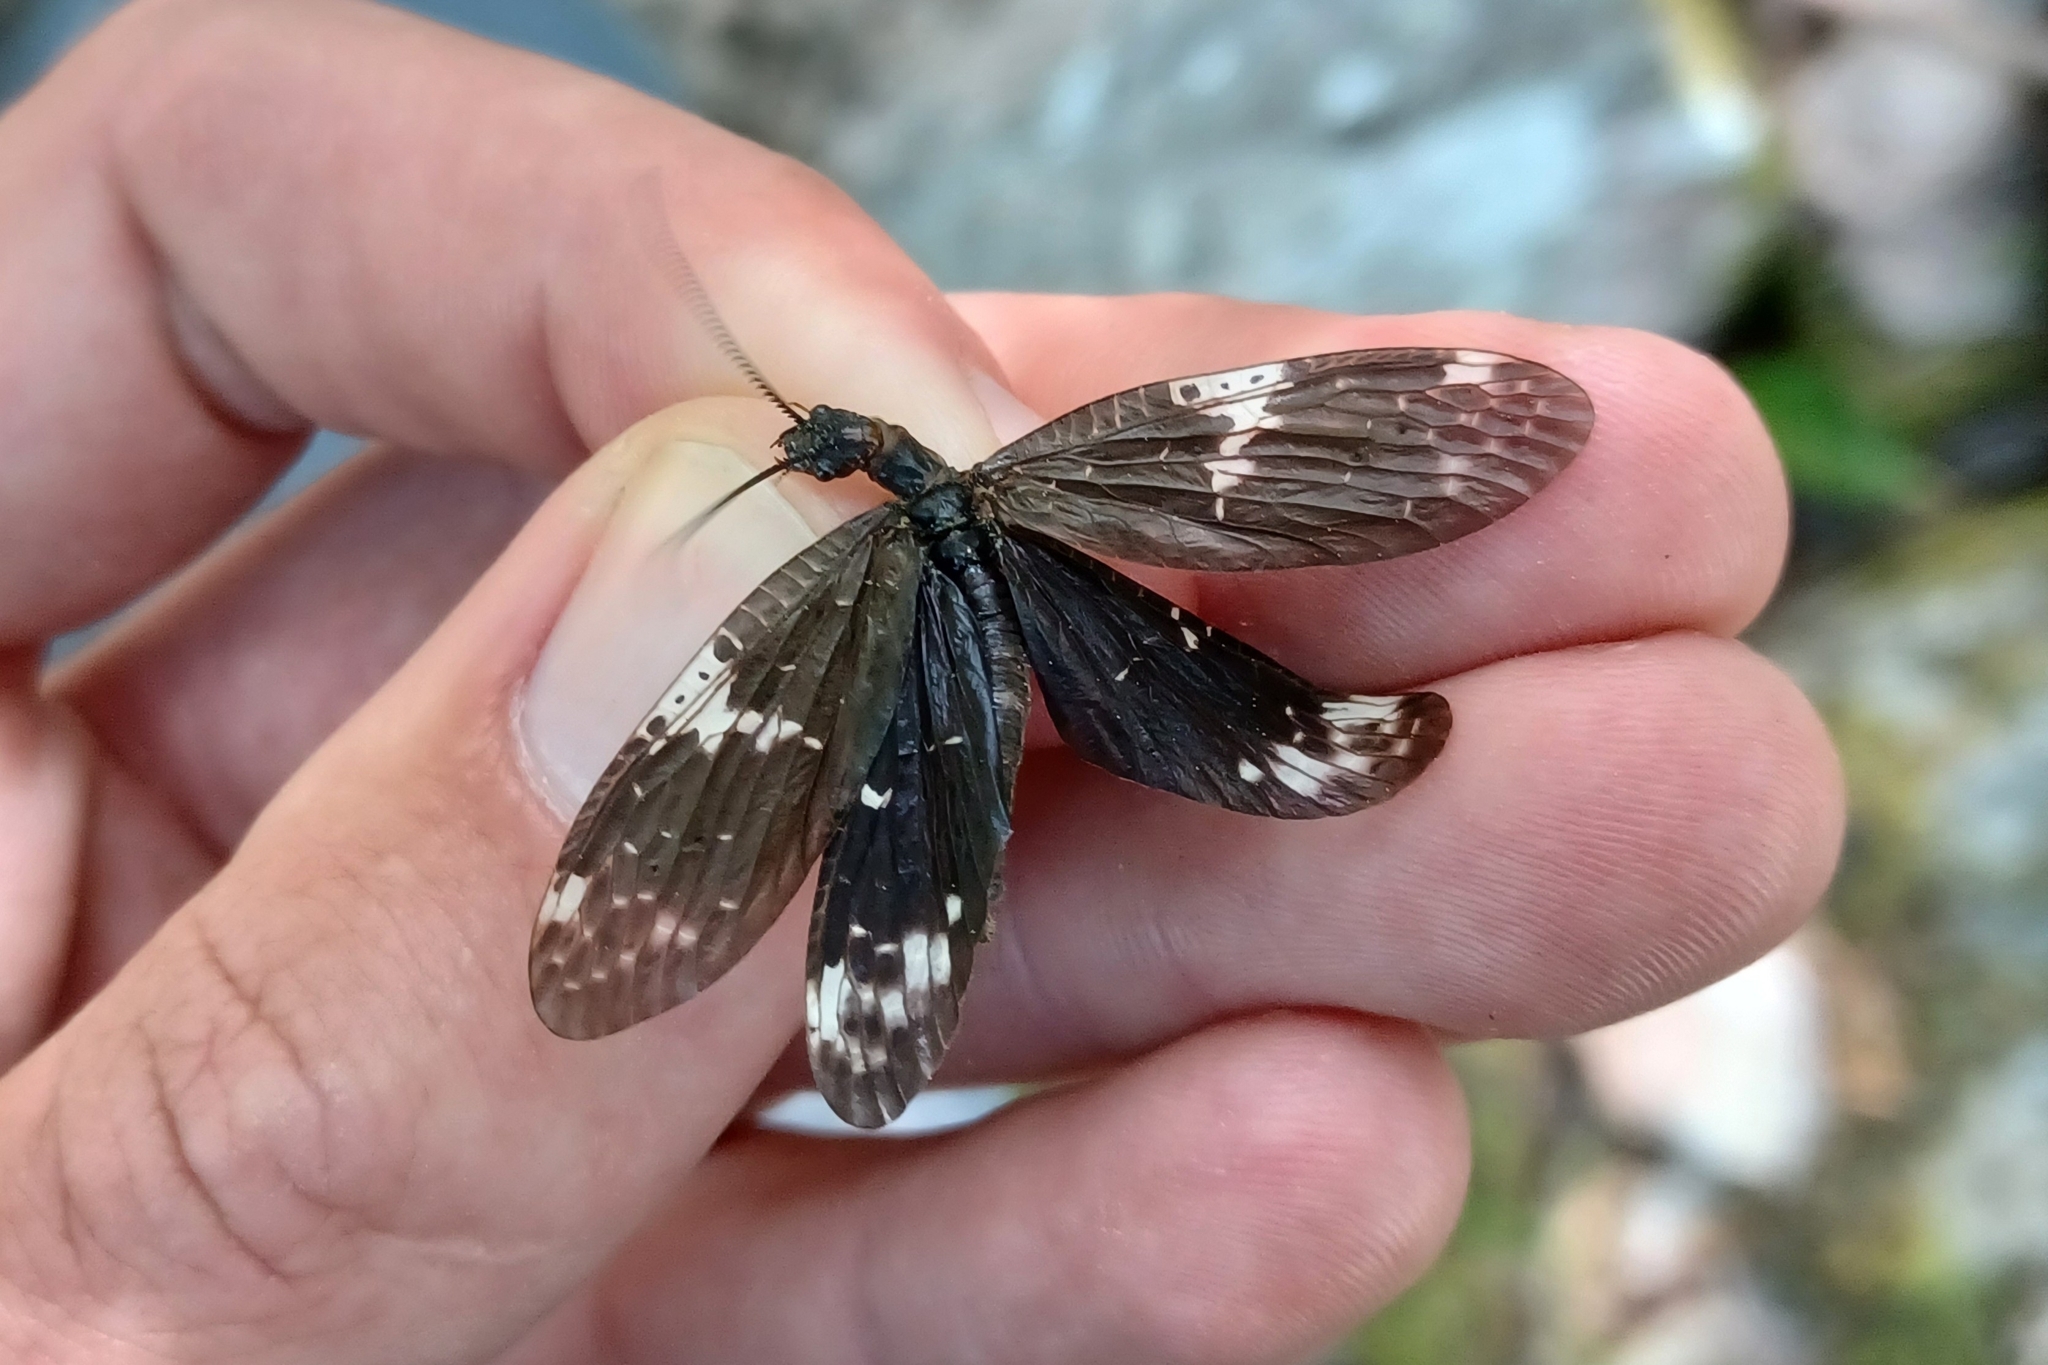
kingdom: Animalia
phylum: Arthropoda
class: Insecta
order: Megaloptera
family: Corydalidae
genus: Nigronia
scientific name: Nigronia serricornis
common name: Serrate dark fishfly
